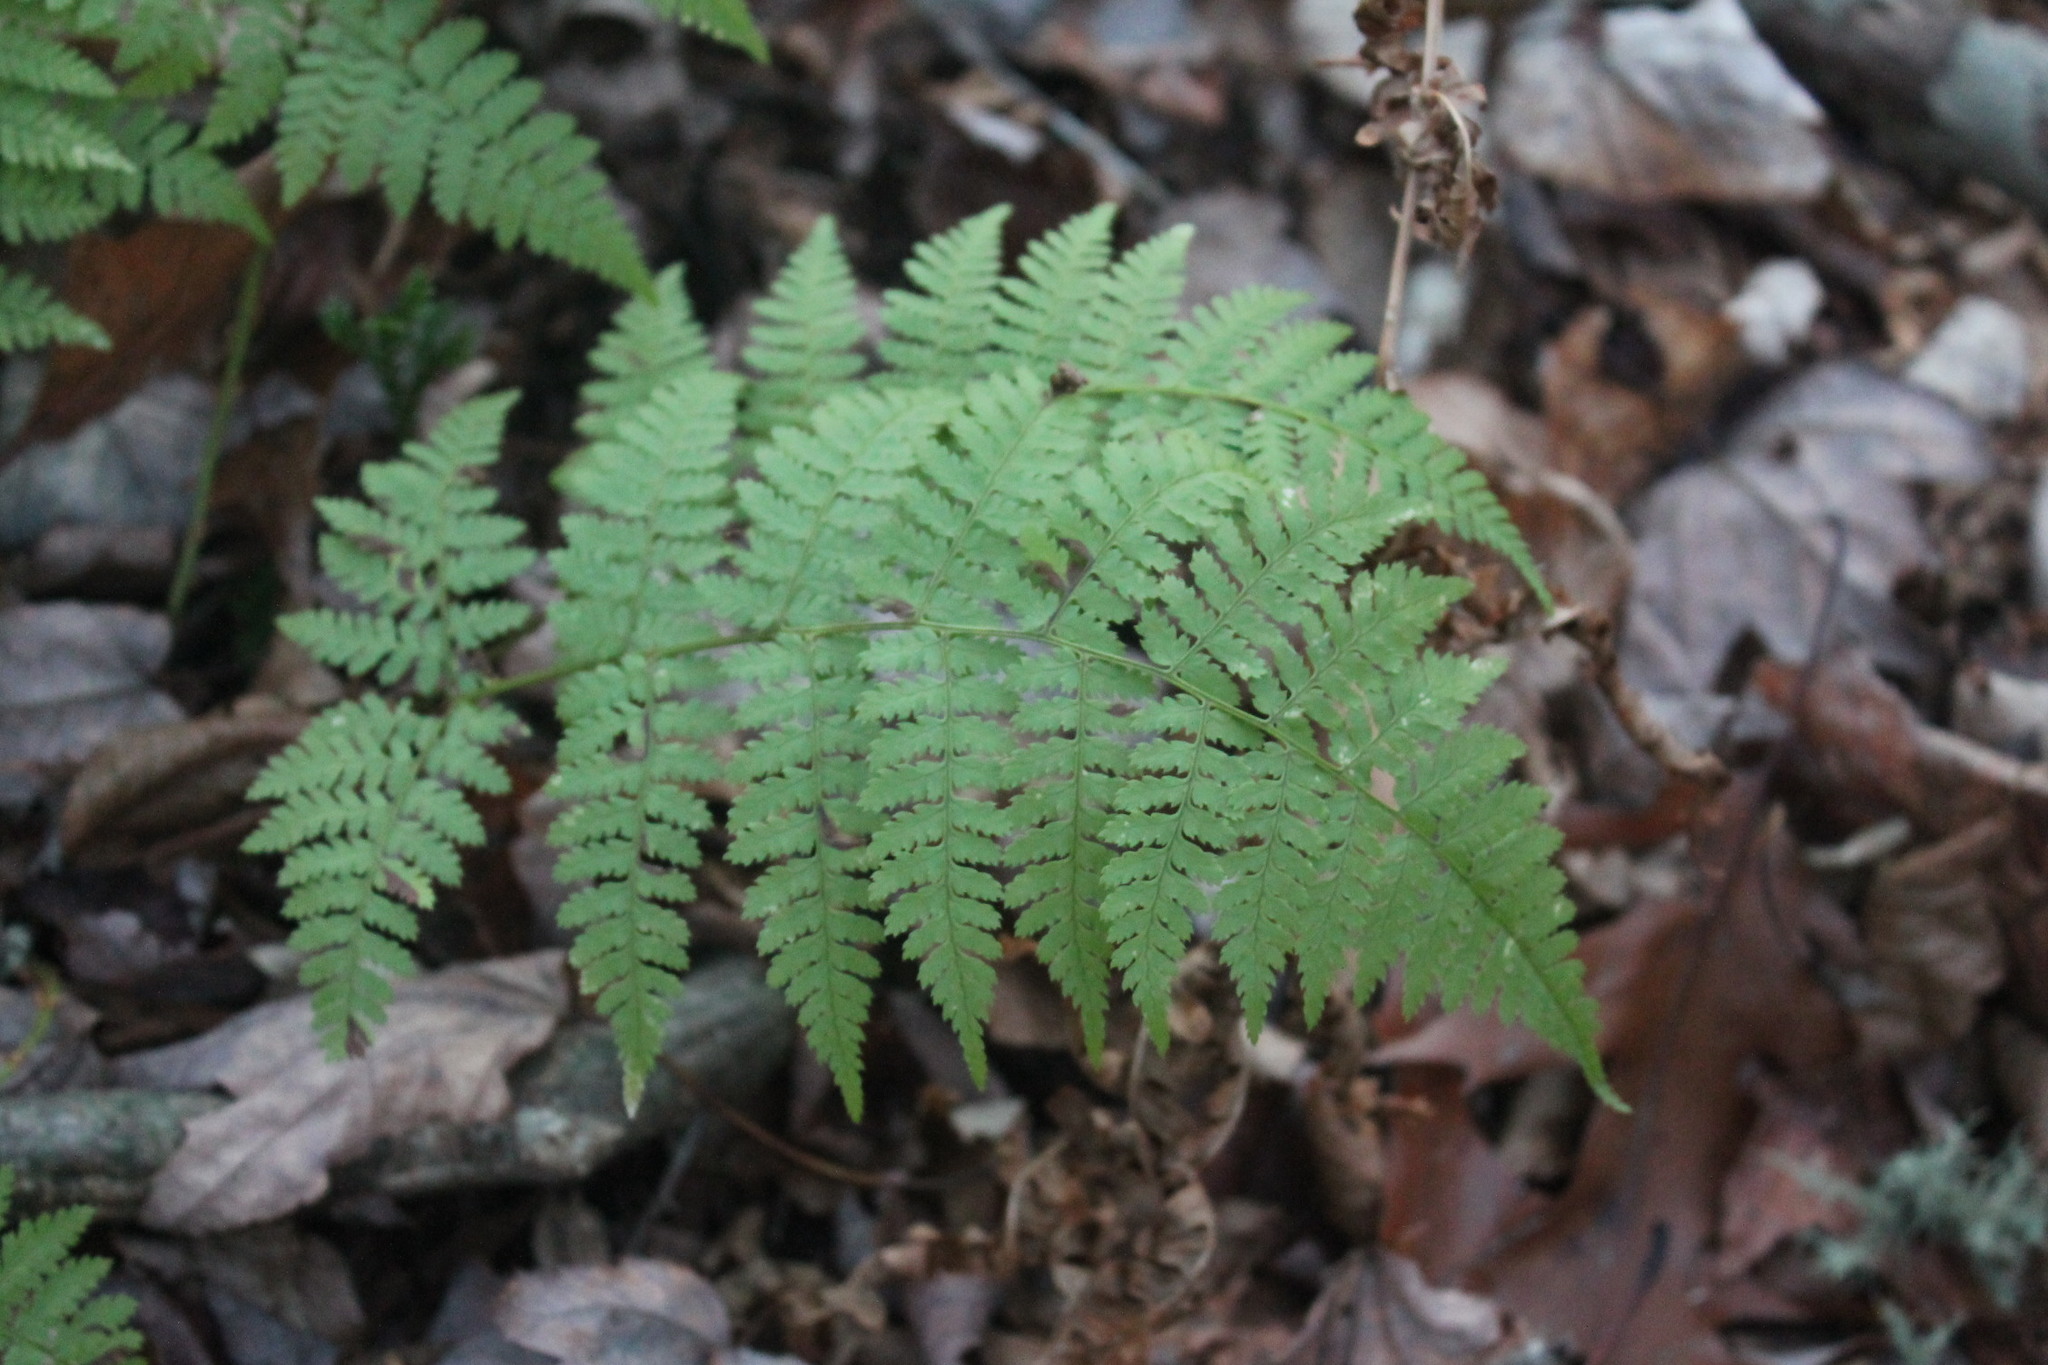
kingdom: Plantae
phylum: Tracheophyta
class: Polypodiopsida
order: Polypodiales
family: Dryopteridaceae
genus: Dryopteris
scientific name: Dryopteris intermedia
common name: Evergreen wood fern
